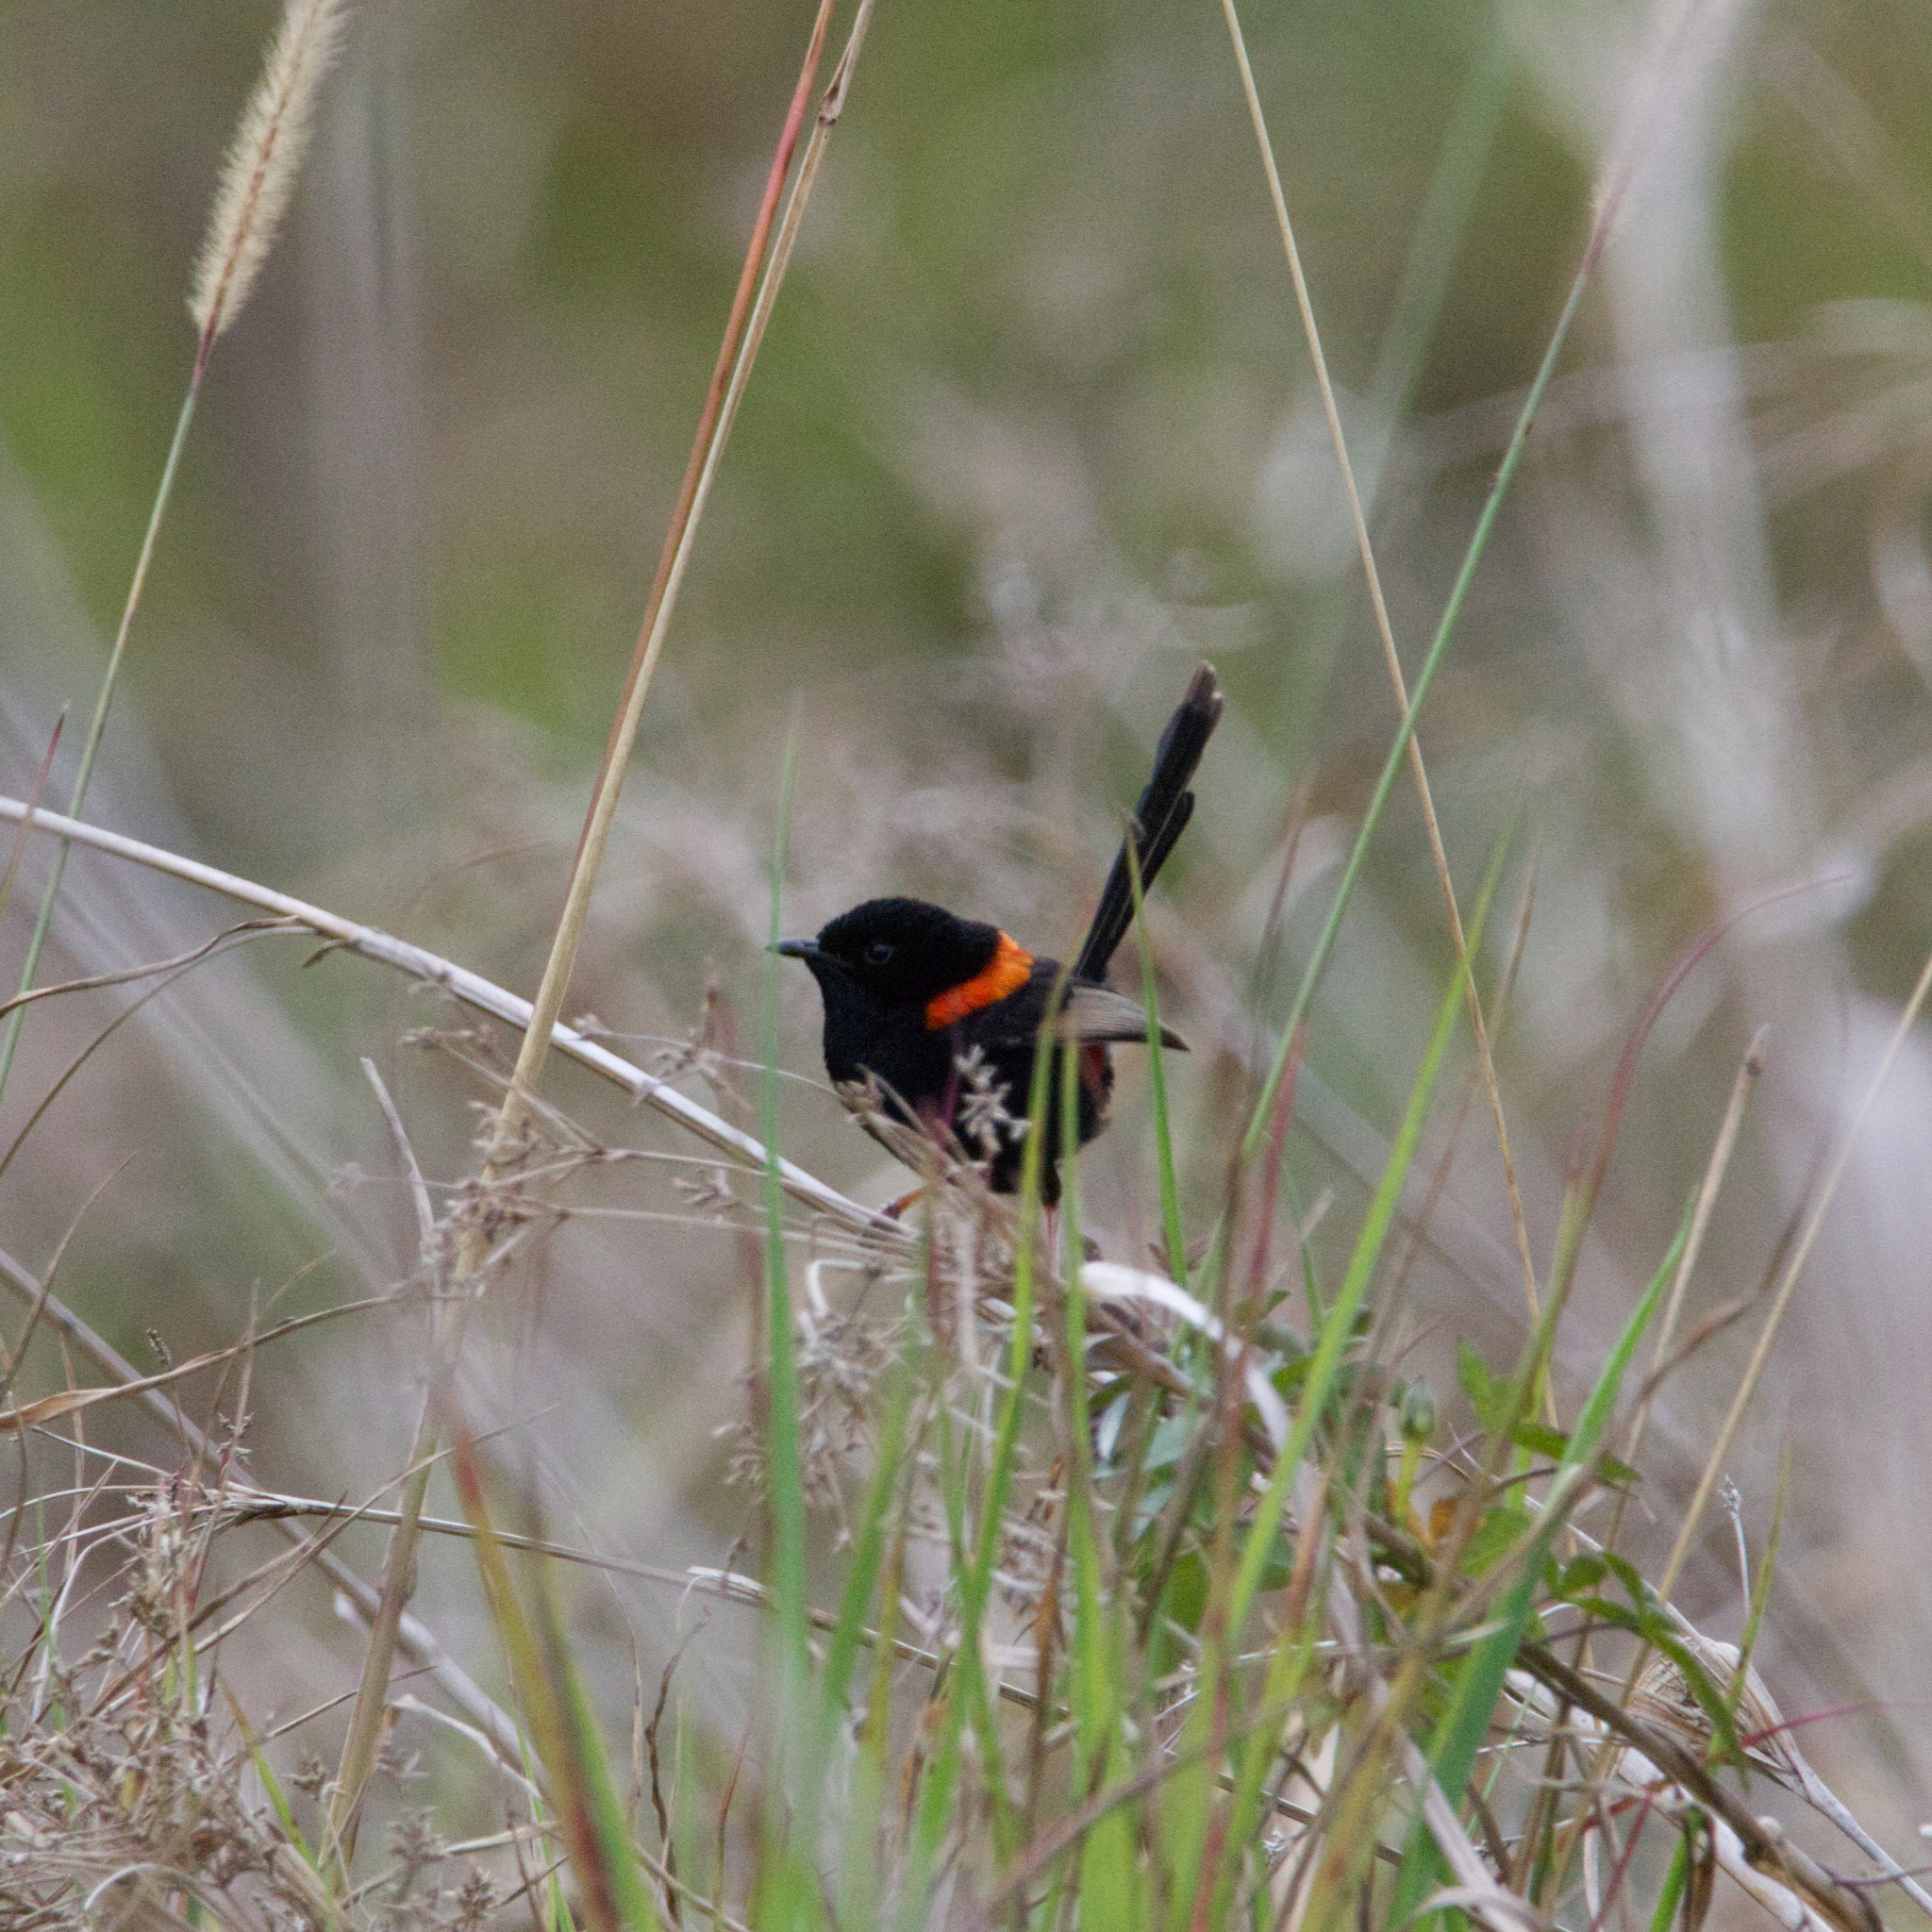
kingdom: Animalia
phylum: Chordata
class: Aves
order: Passeriformes
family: Maluridae
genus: Malurus
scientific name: Malurus melanocephalus
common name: Red-backed fairywren
